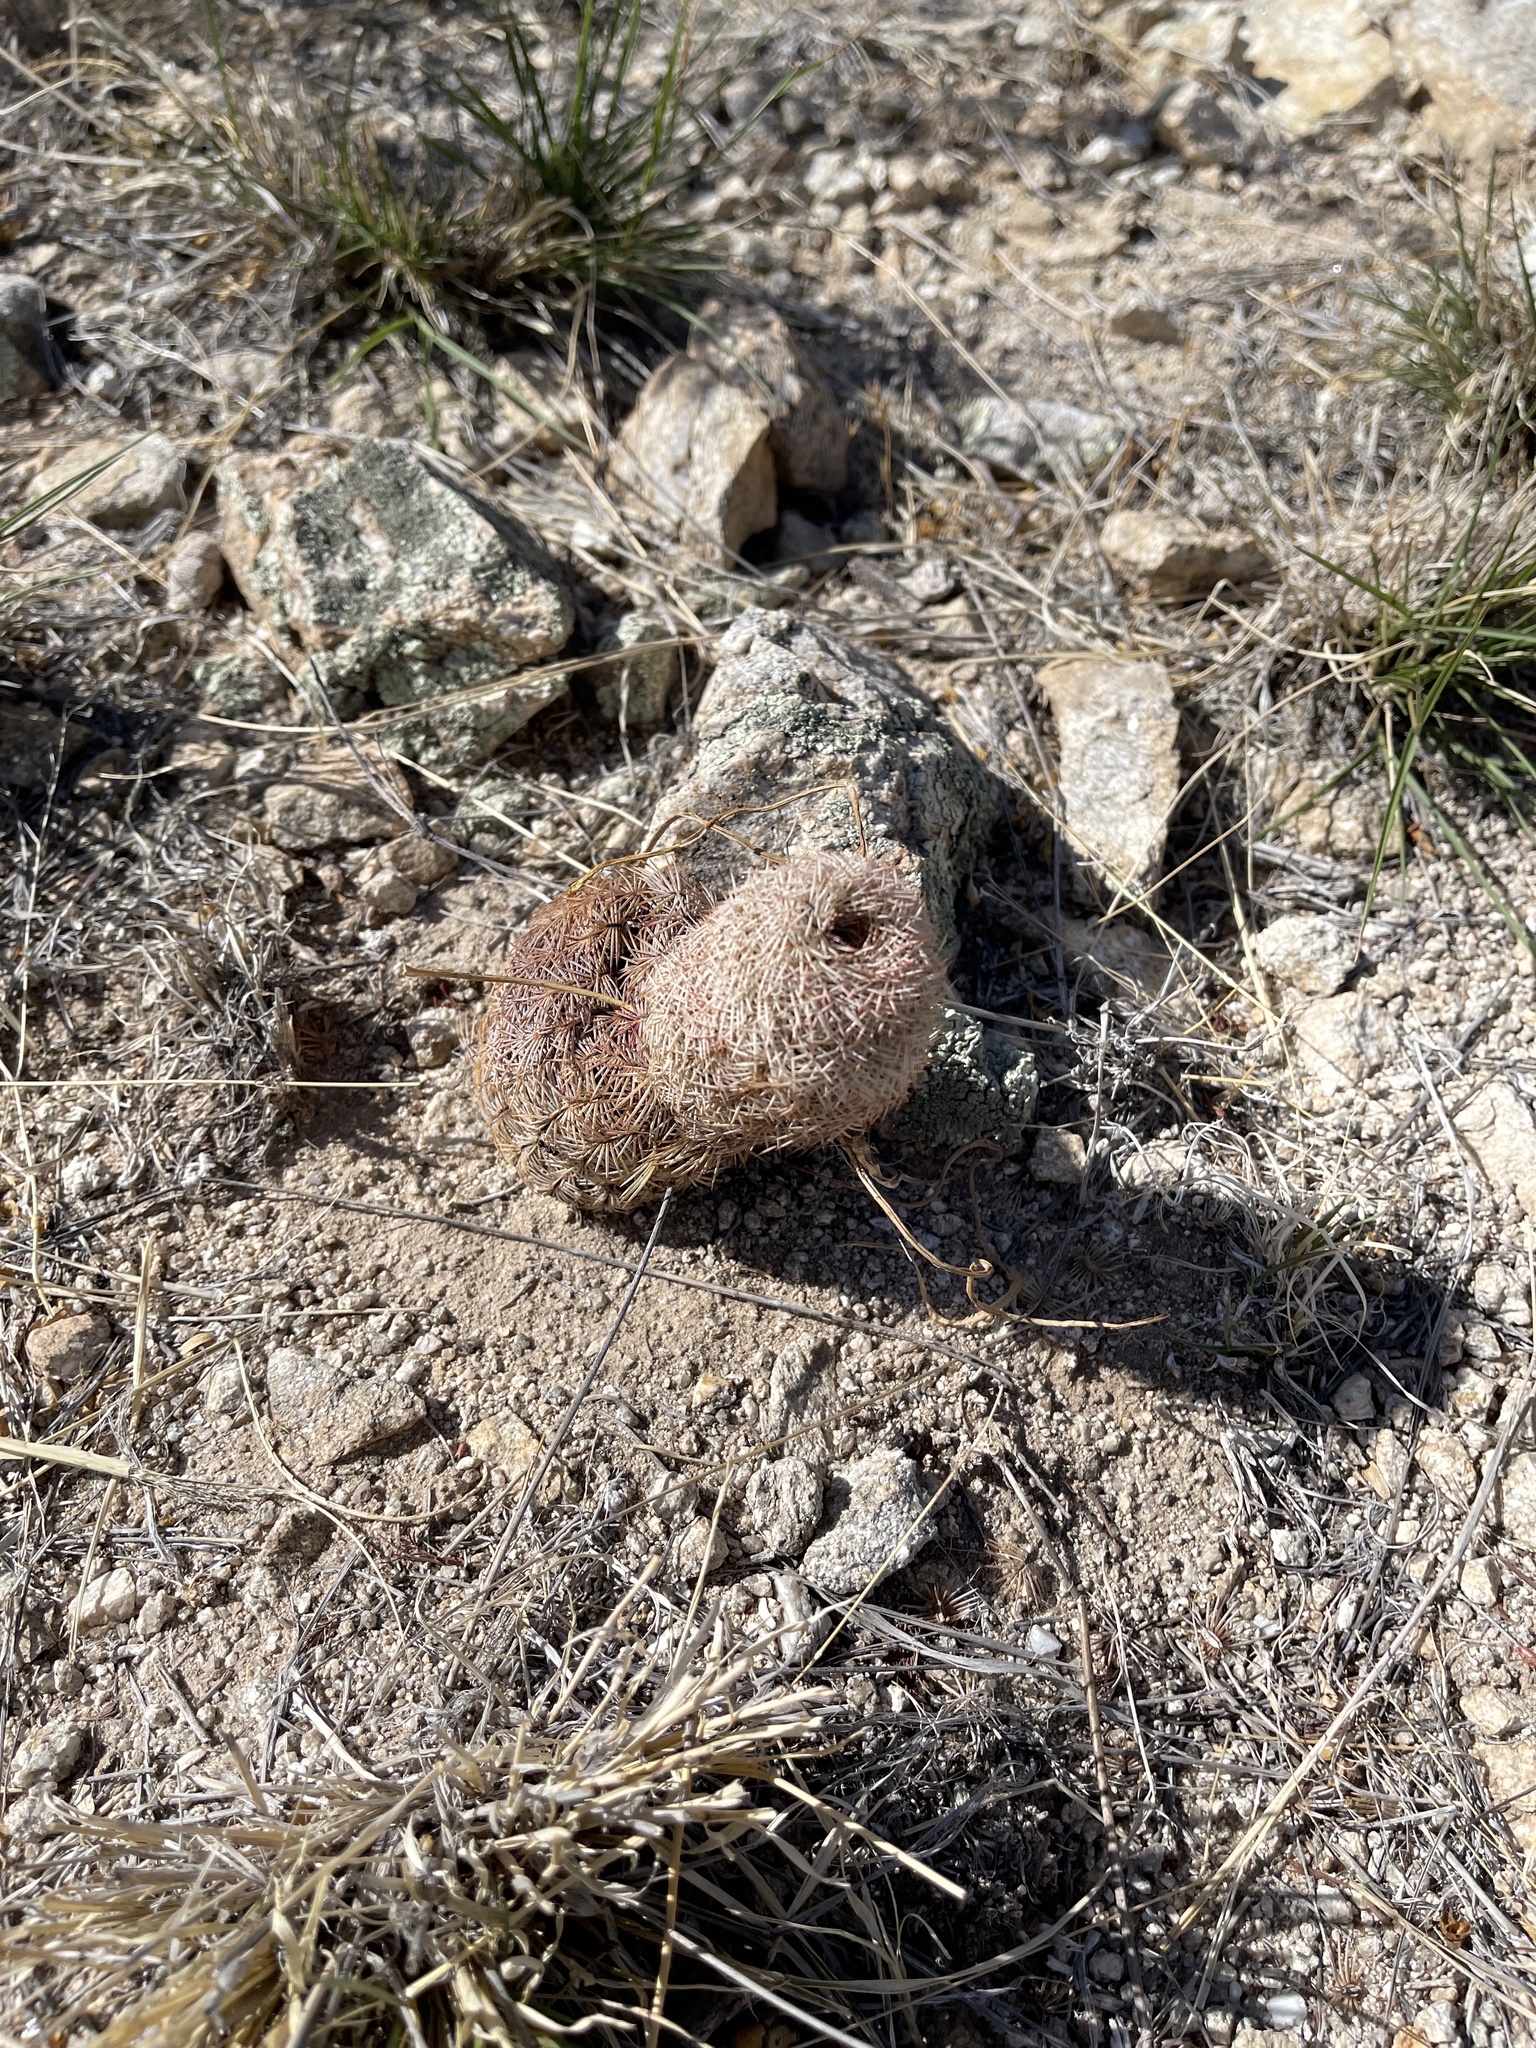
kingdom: Plantae
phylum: Tracheophyta
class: Magnoliopsida
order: Caryophyllales
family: Cactaceae
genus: Echinocereus
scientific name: Echinocereus rigidissimus
